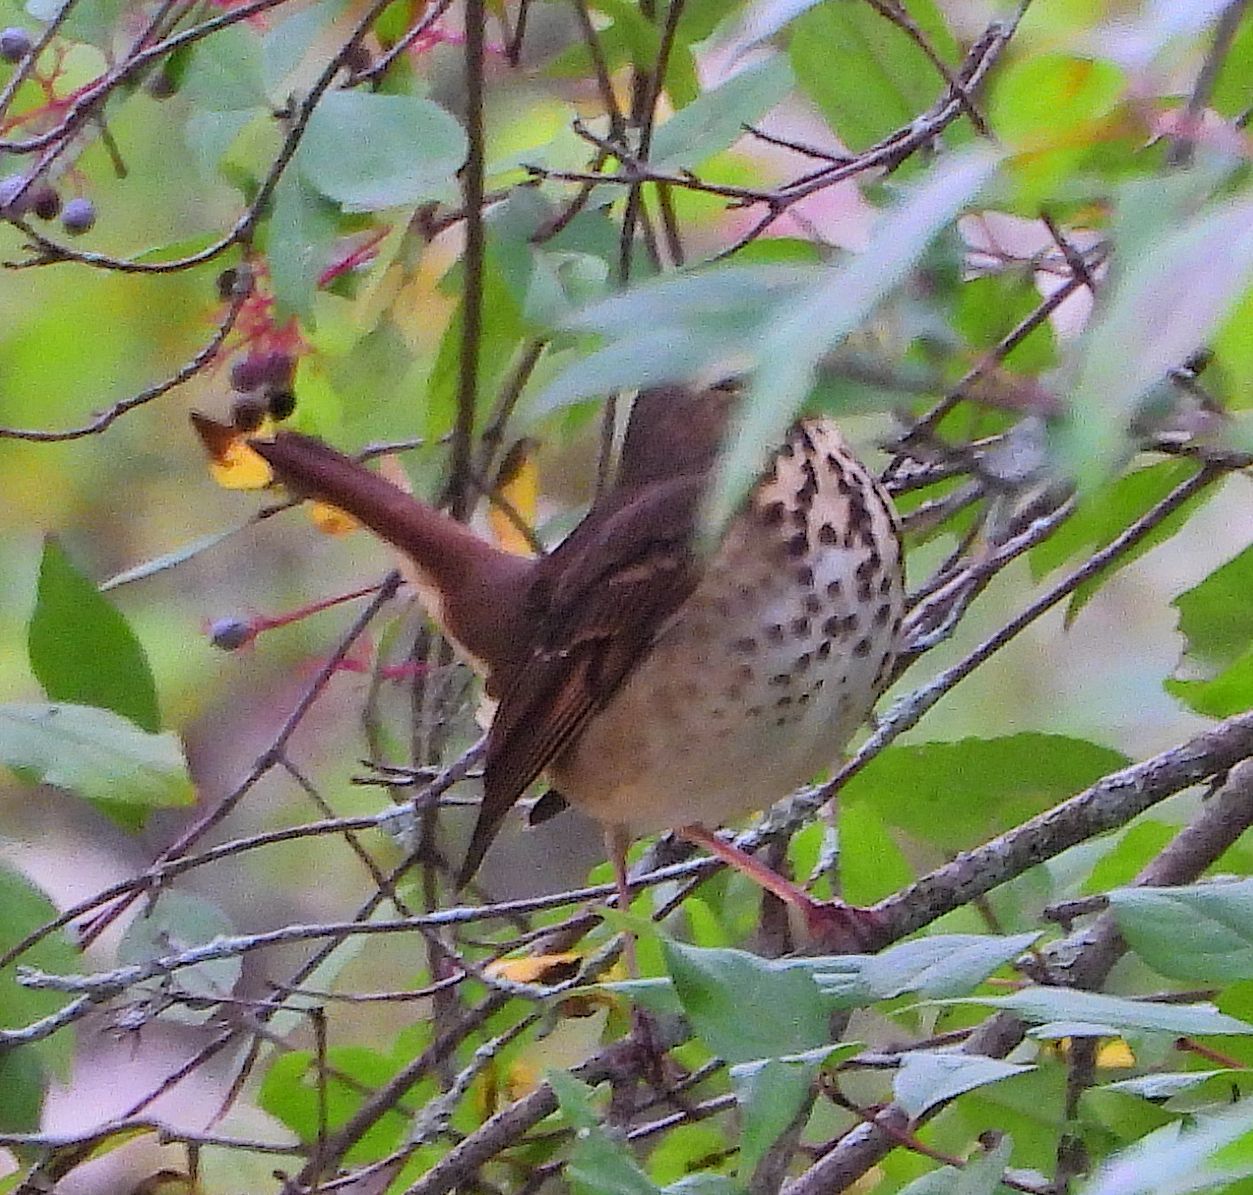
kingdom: Animalia
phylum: Chordata
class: Aves
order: Passeriformes
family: Turdidae
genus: Catharus
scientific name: Catharus guttatus
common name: Hermit thrush
